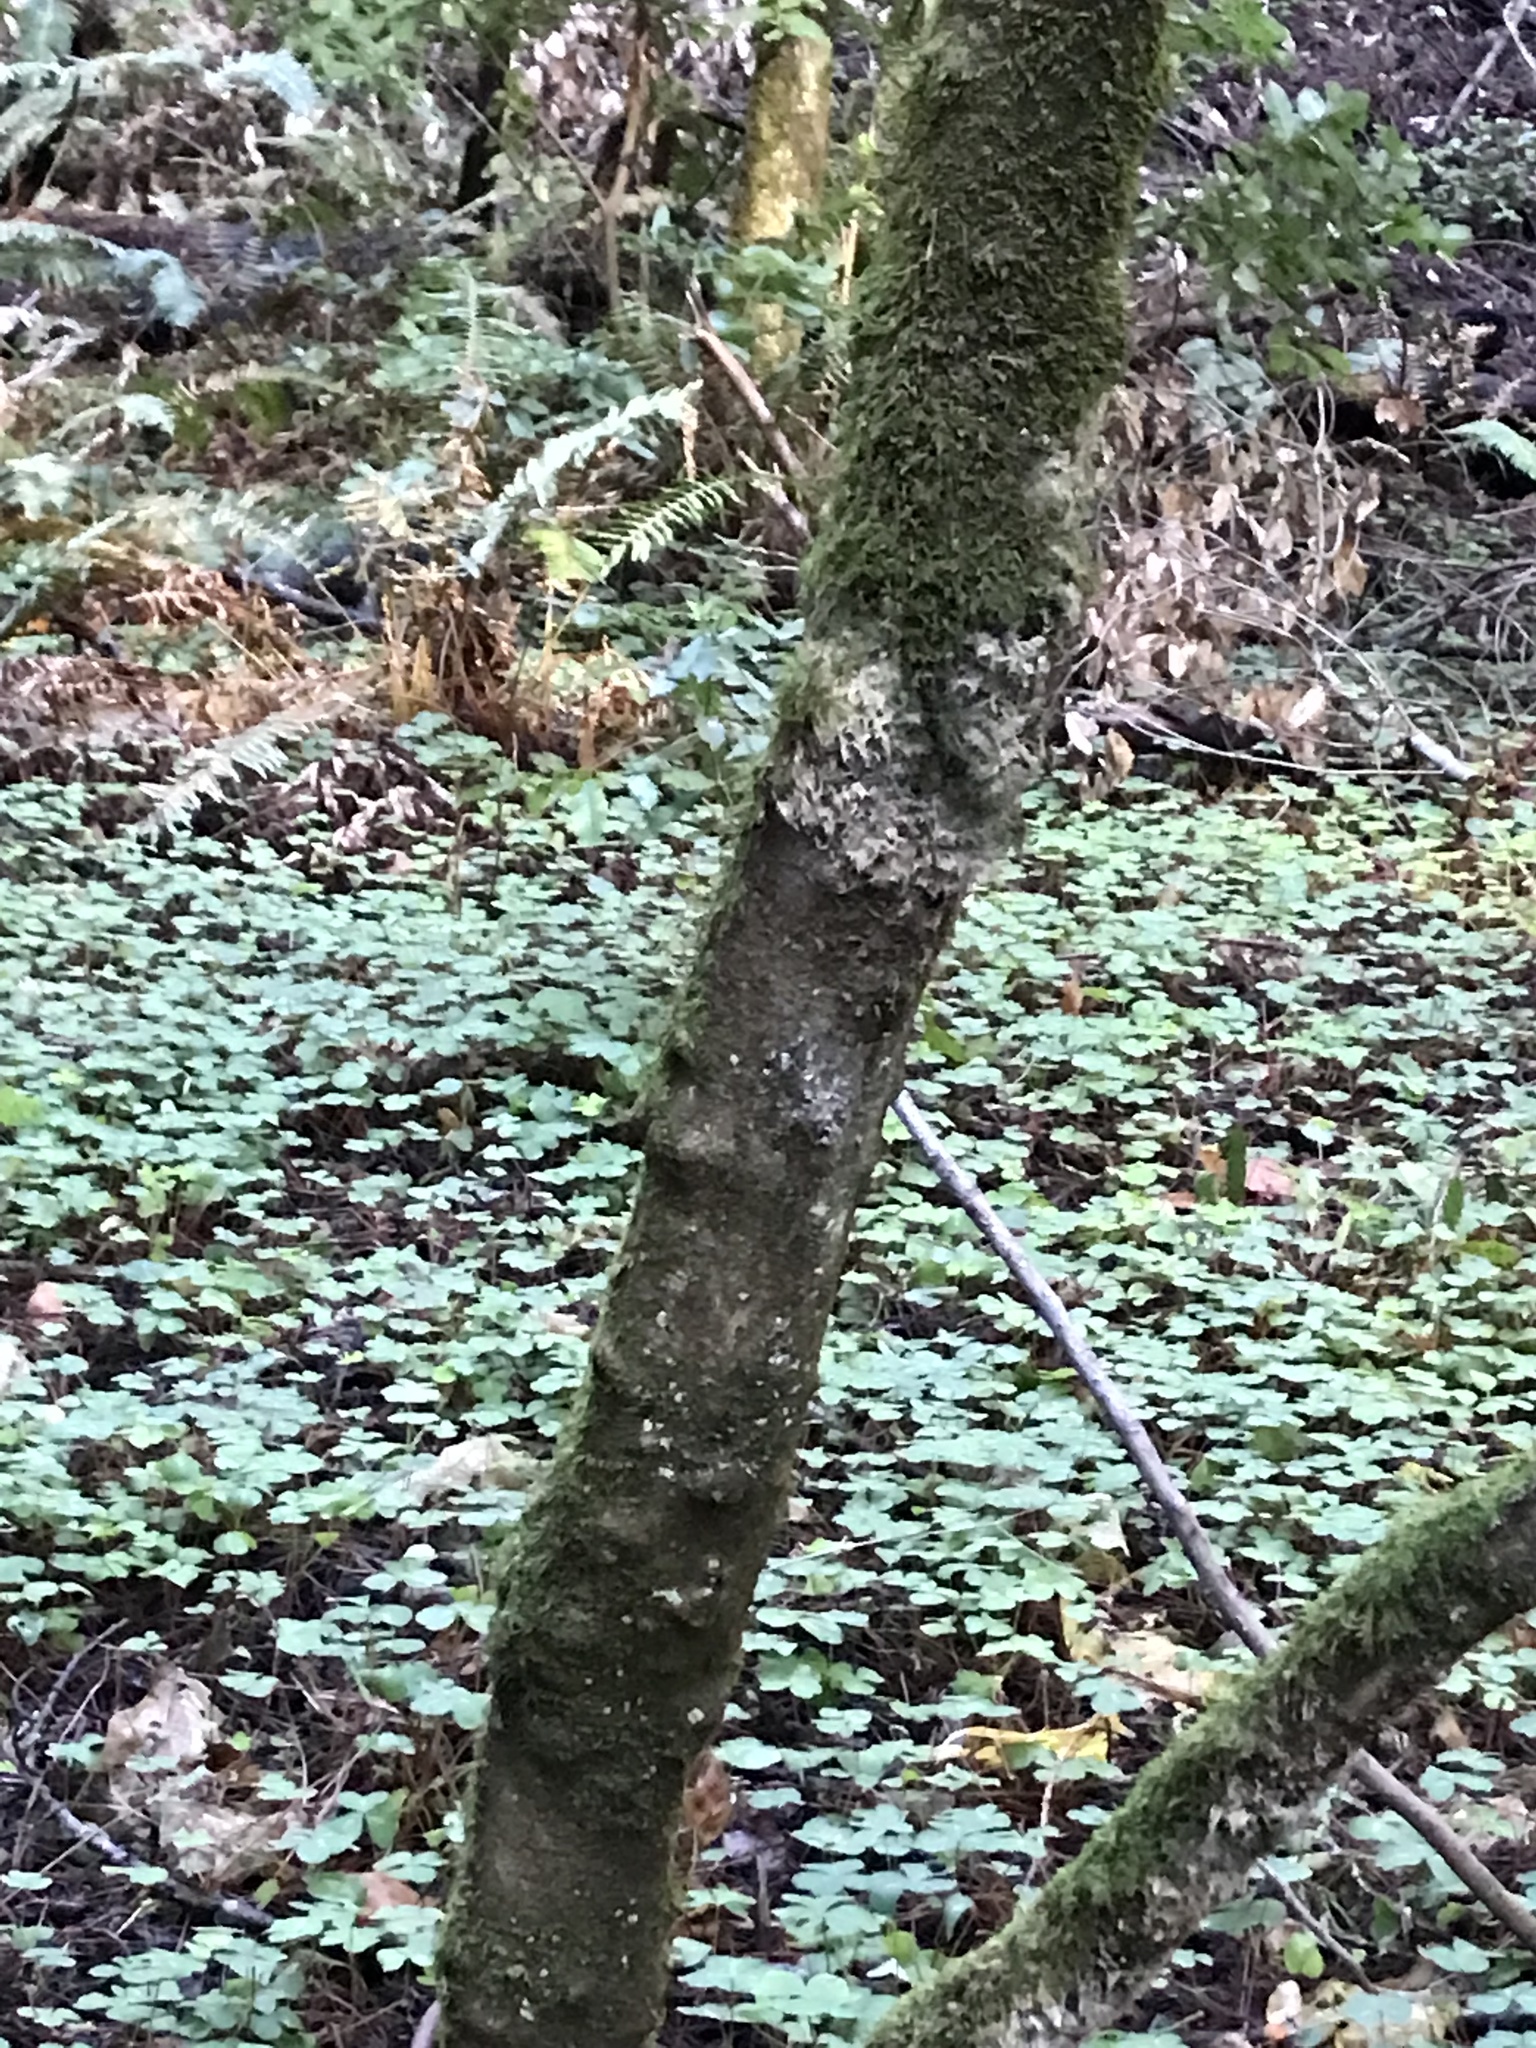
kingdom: Plantae
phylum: Tracheophyta
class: Magnoliopsida
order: Sapindales
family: Sapindaceae
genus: Acer
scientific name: Acer macrophyllum
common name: Oregon maple
